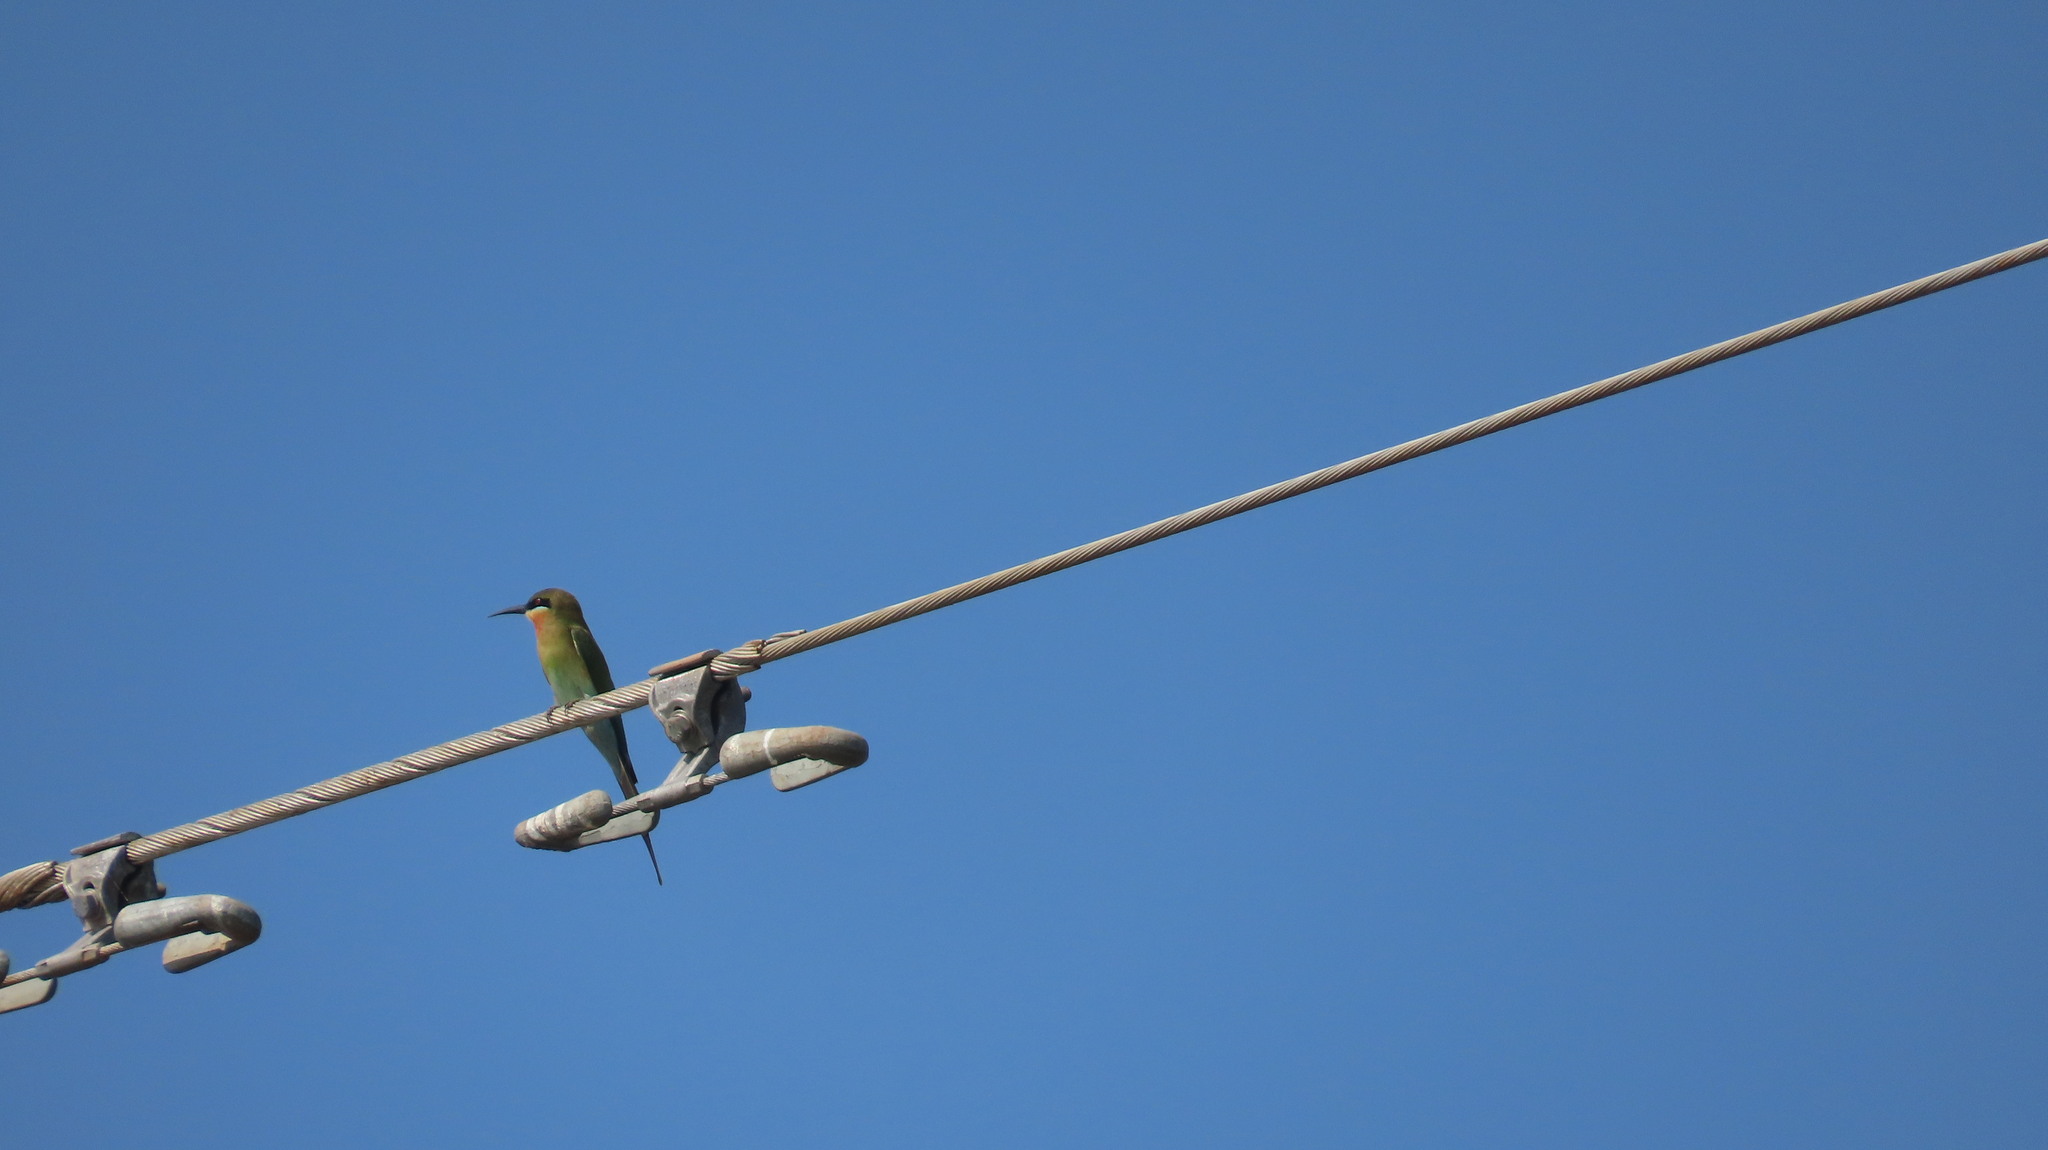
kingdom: Animalia
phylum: Chordata
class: Aves
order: Coraciiformes
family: Meropidae
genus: Merops
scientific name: Merops philippinus
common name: Blue-tailed bee-eater
